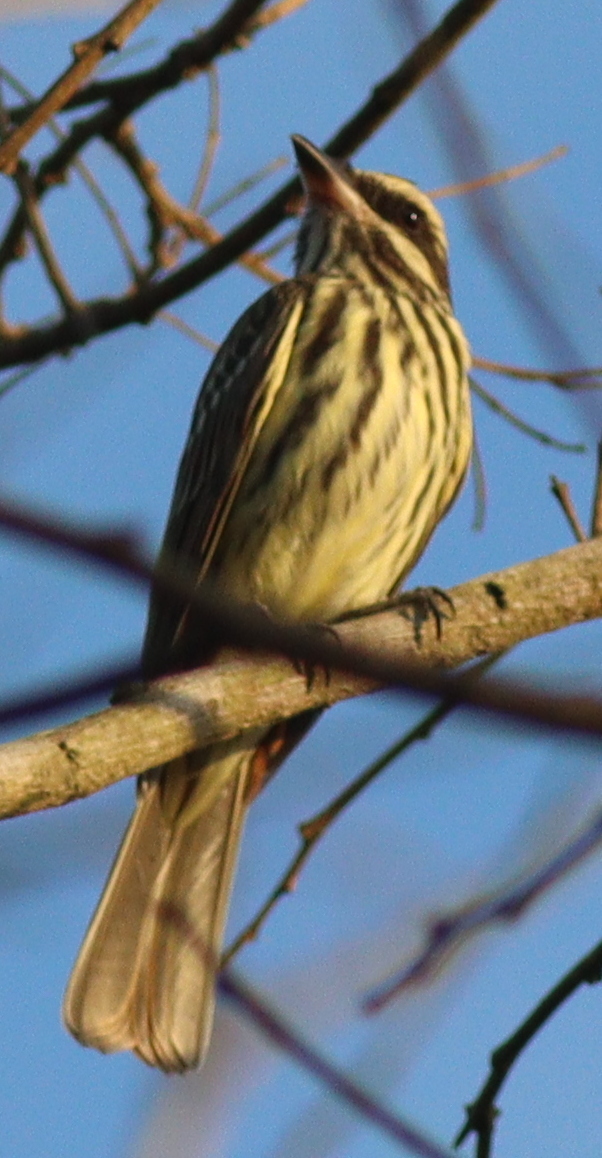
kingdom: Animalia
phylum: Chordata
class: Aves
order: Passeriformes
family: Tyrannidae
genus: Myiodynastes
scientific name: Myiodynastes maculatus
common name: Streaked flycatcher
